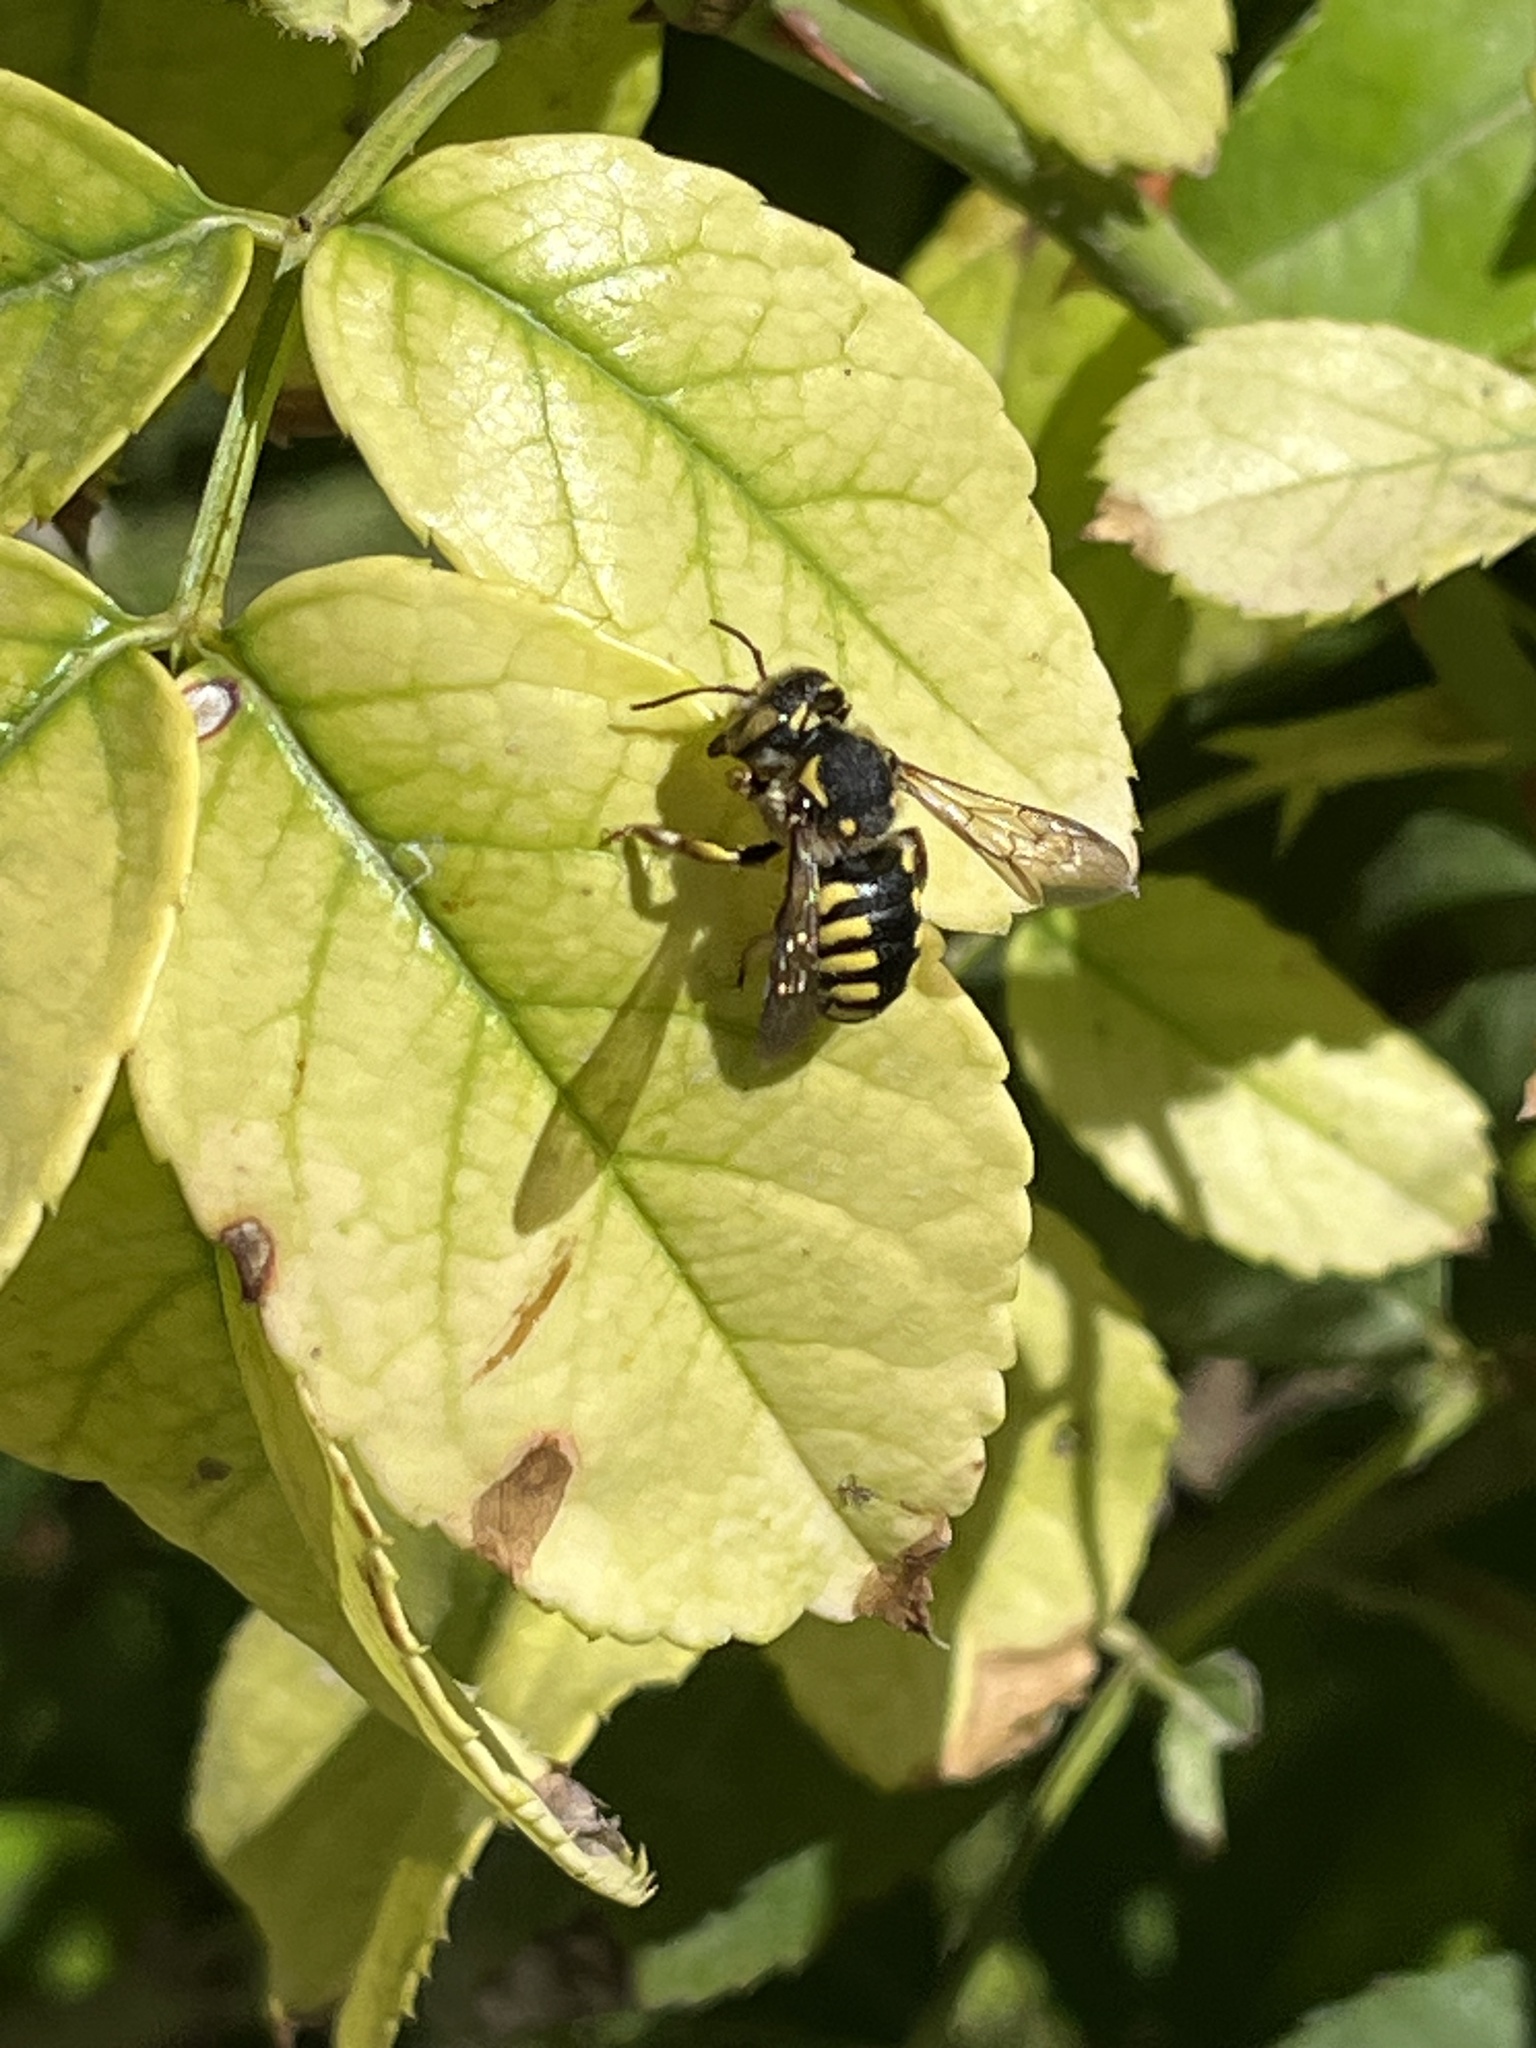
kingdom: Animalia
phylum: Arthropoda
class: Insecta
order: Hymenoptera
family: Megachilidae
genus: Anthidium
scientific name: Anthidium florentinum
